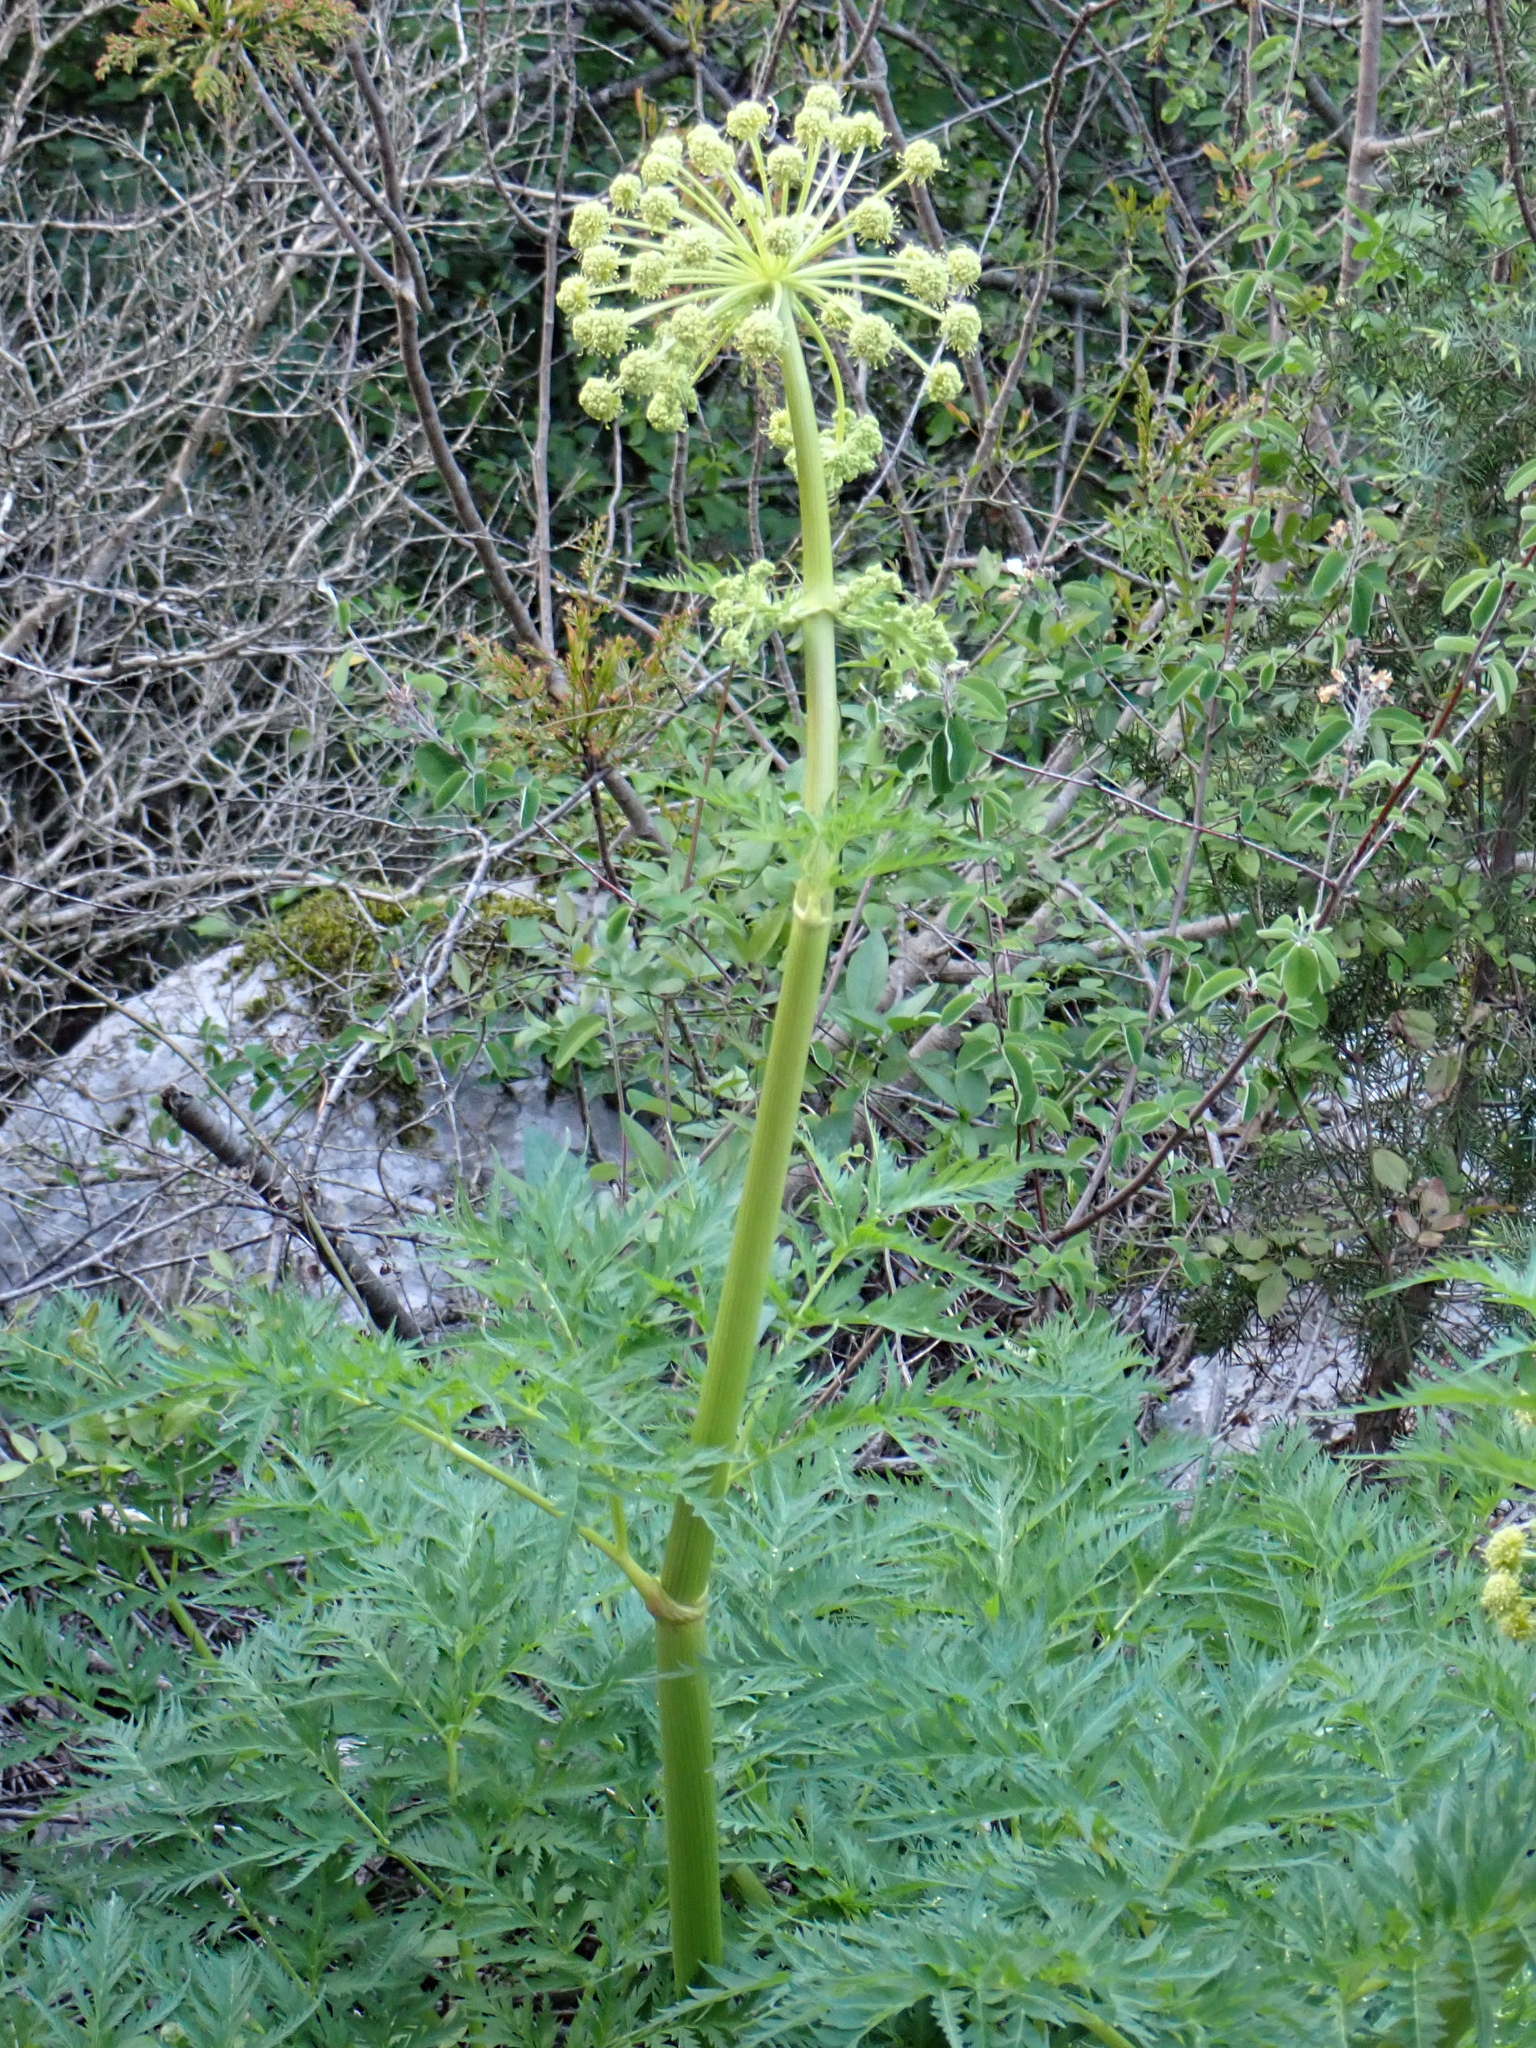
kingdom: Plantae
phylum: Tracheophyta
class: Magnoliopsida
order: Apiales
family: Apiaceae
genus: Molopospermum
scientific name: Molopospermum peloponnesiacum
